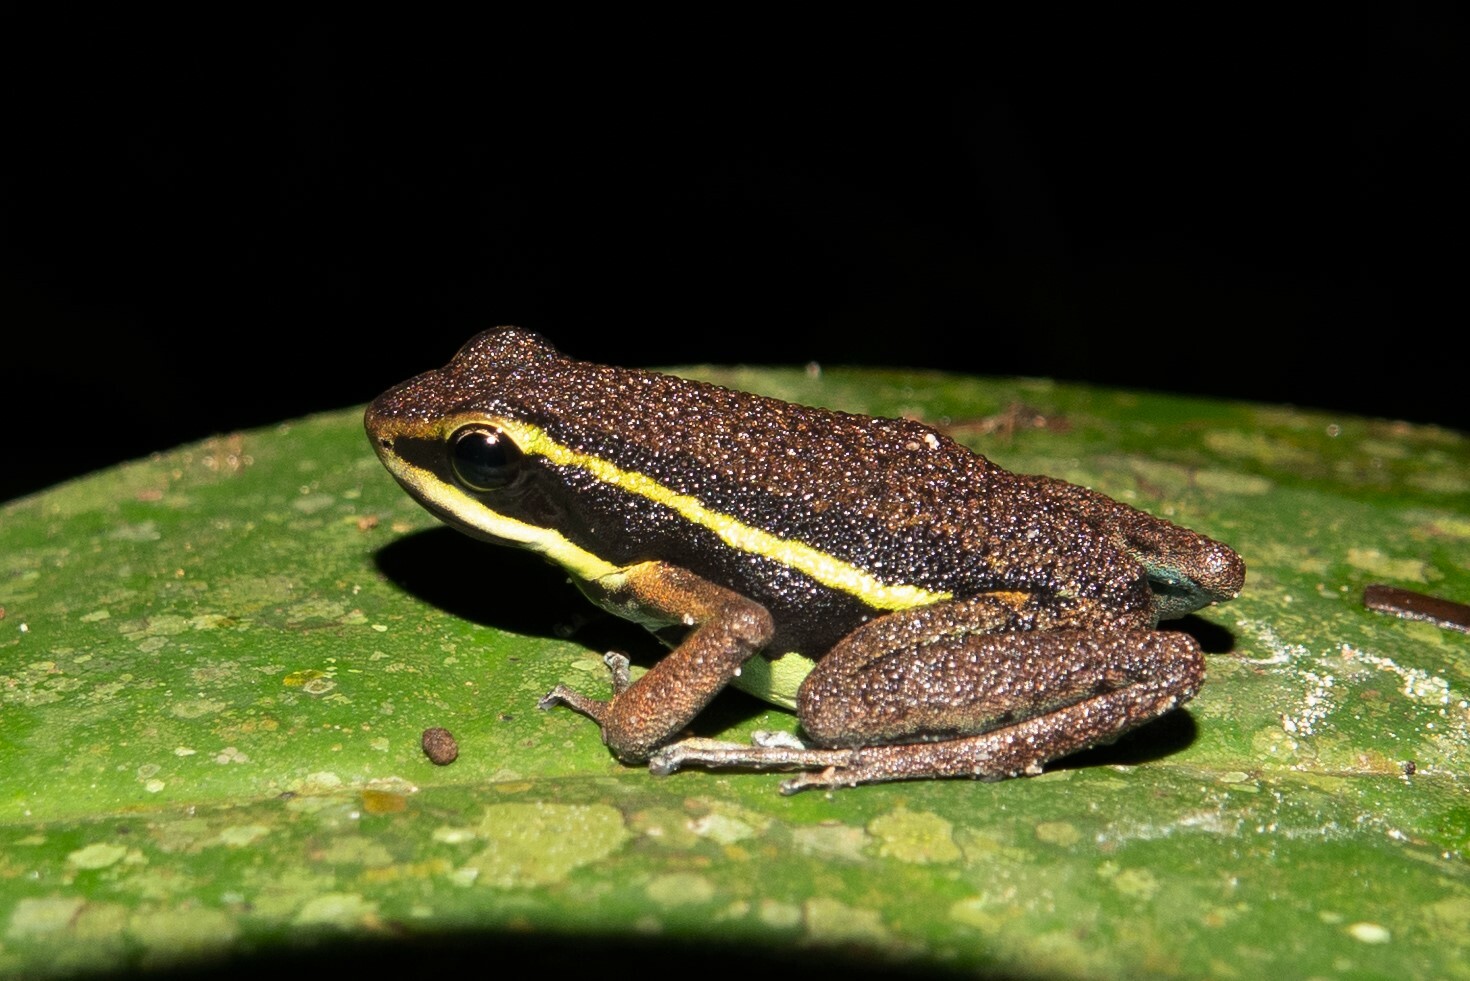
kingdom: Animalia
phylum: Chordata
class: Amphibia
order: Anura
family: Dendrobatidae
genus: Ameerega
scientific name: Ameerega petersi
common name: Peru poison frog
